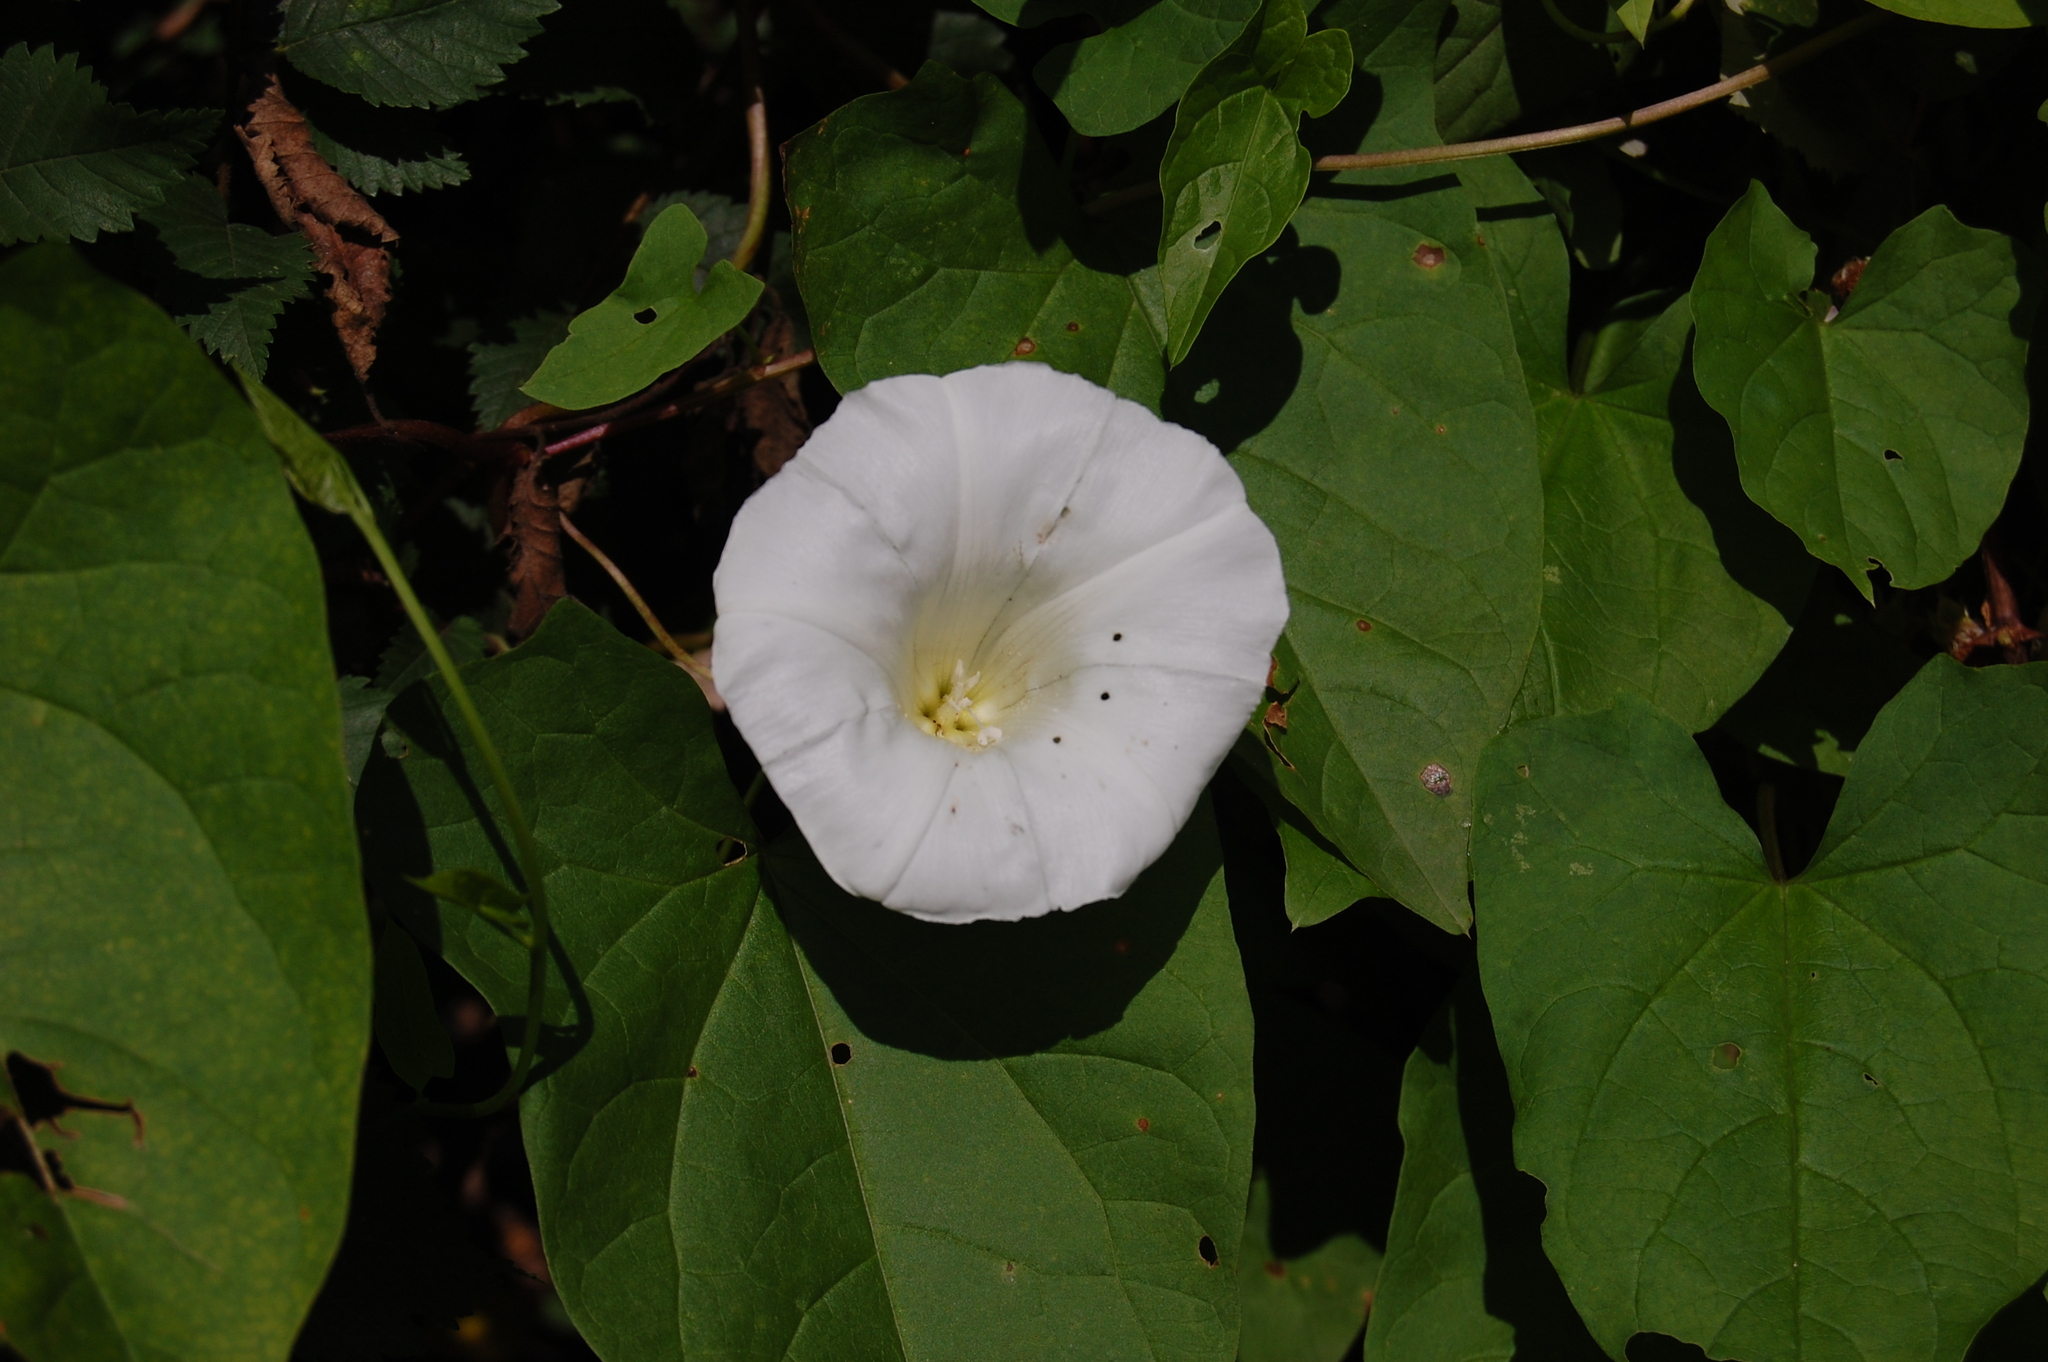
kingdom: Plantae
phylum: Tracheophyta
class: Magnoliopsida
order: Solanales
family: Convolvulaceae
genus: Calystegia
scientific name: Calystegia
